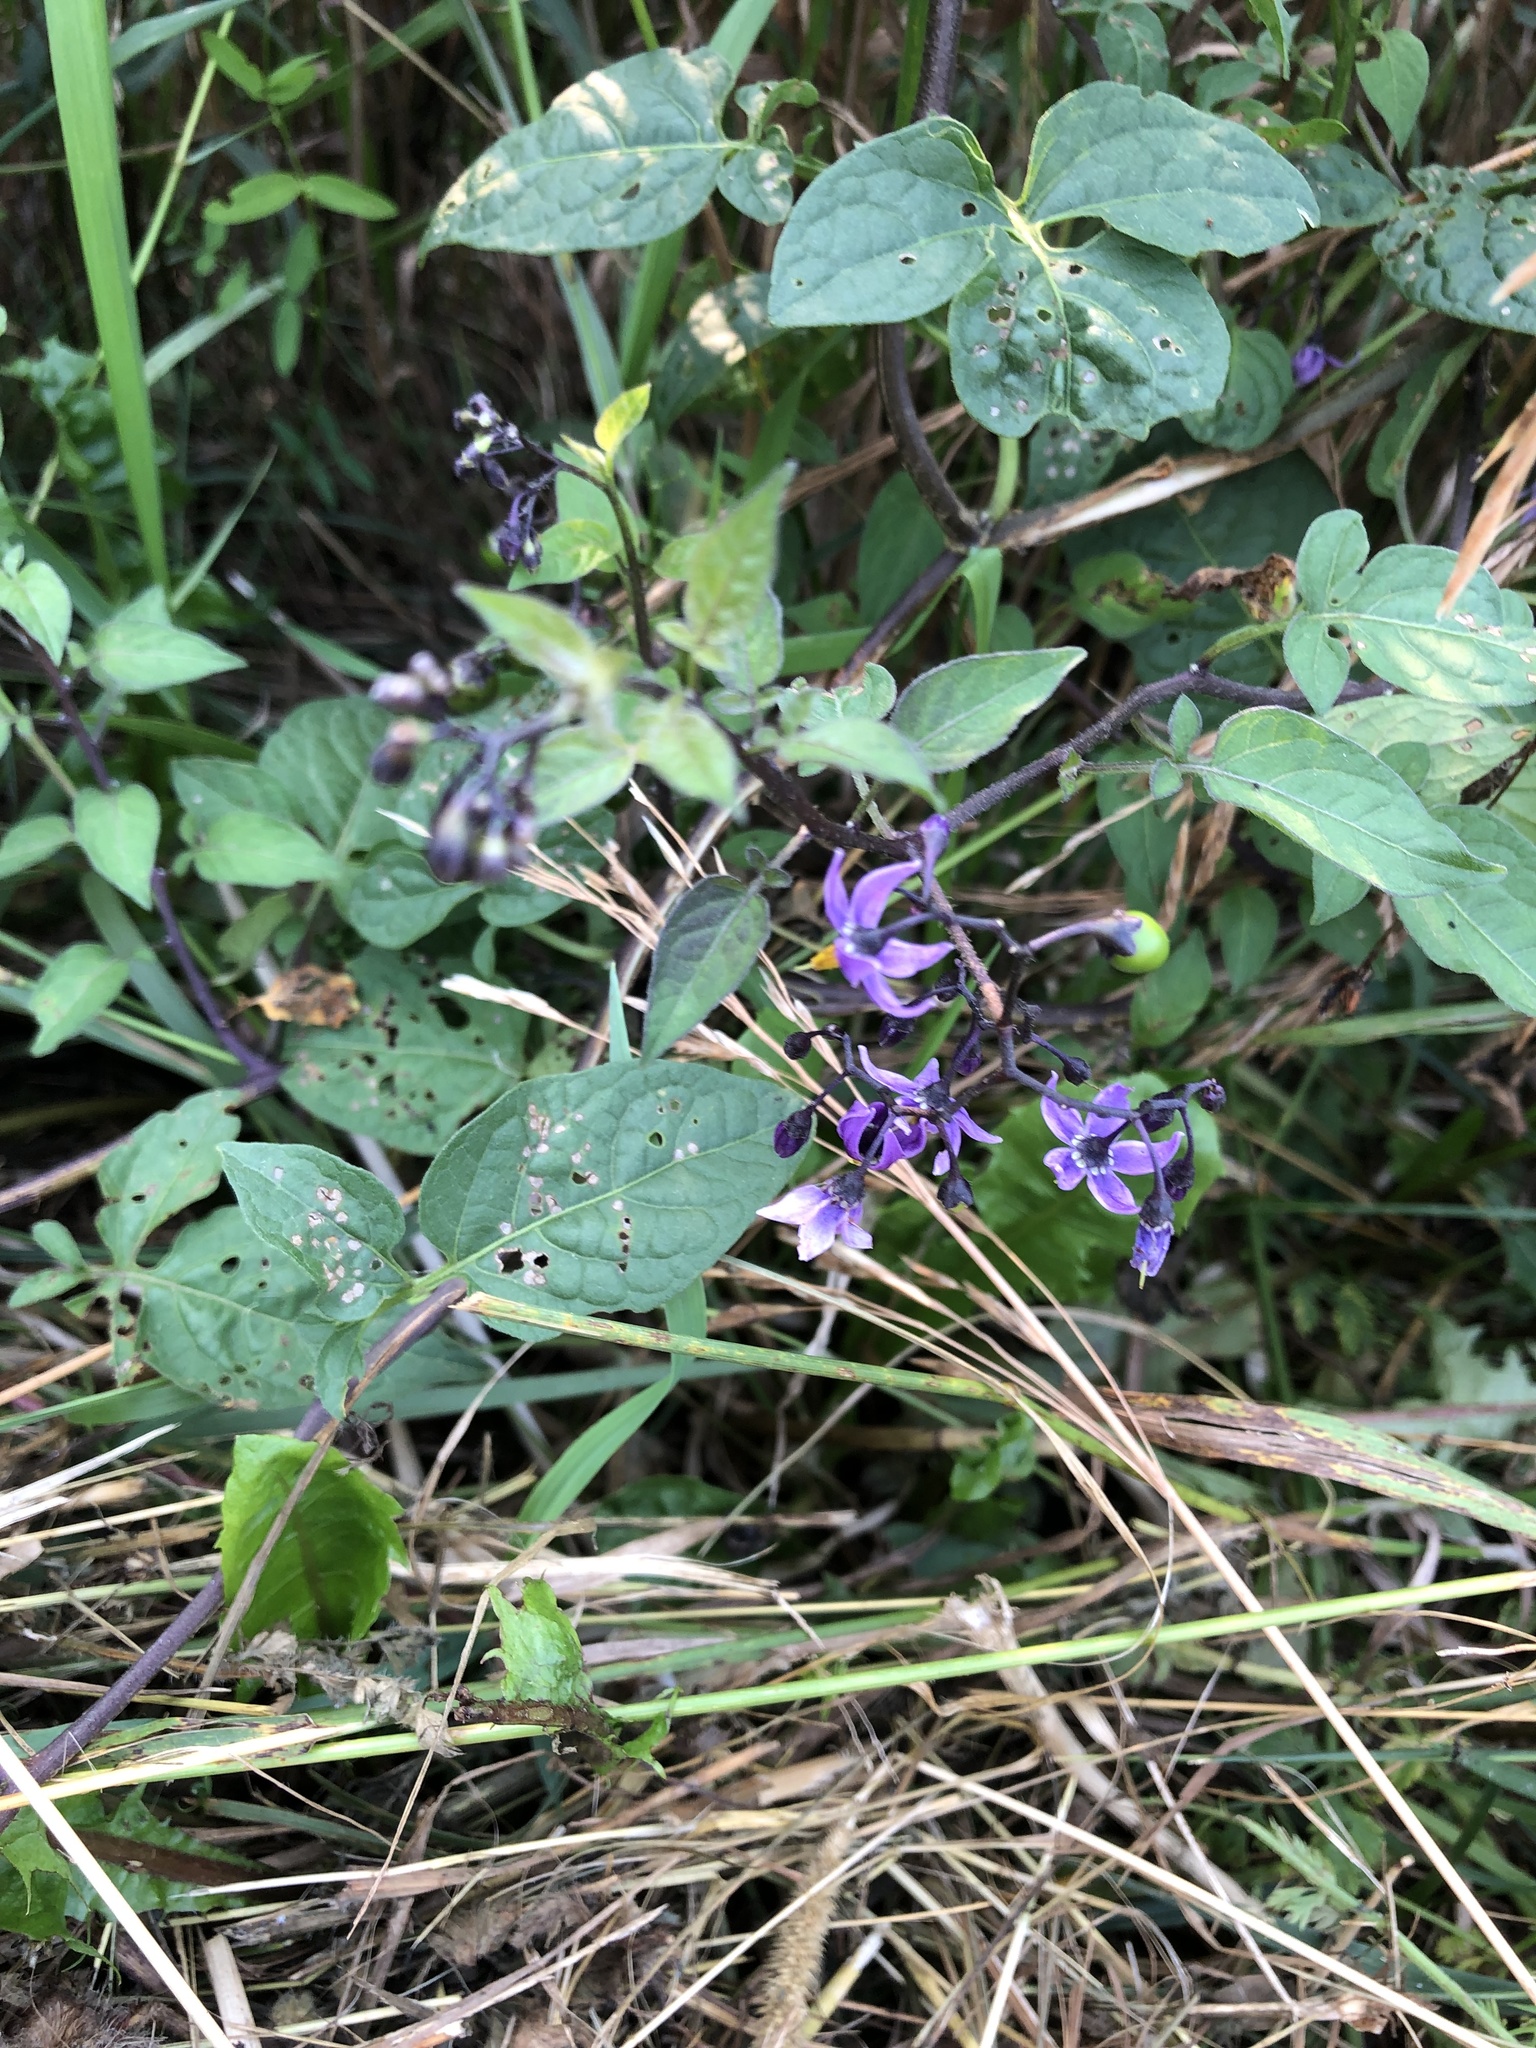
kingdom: Plantae
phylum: Tracheophyta
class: Magnoliopsida
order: Solanales
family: Solanaceae
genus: Solanum
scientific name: Solanum dulcamara
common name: Climbing nightshade
